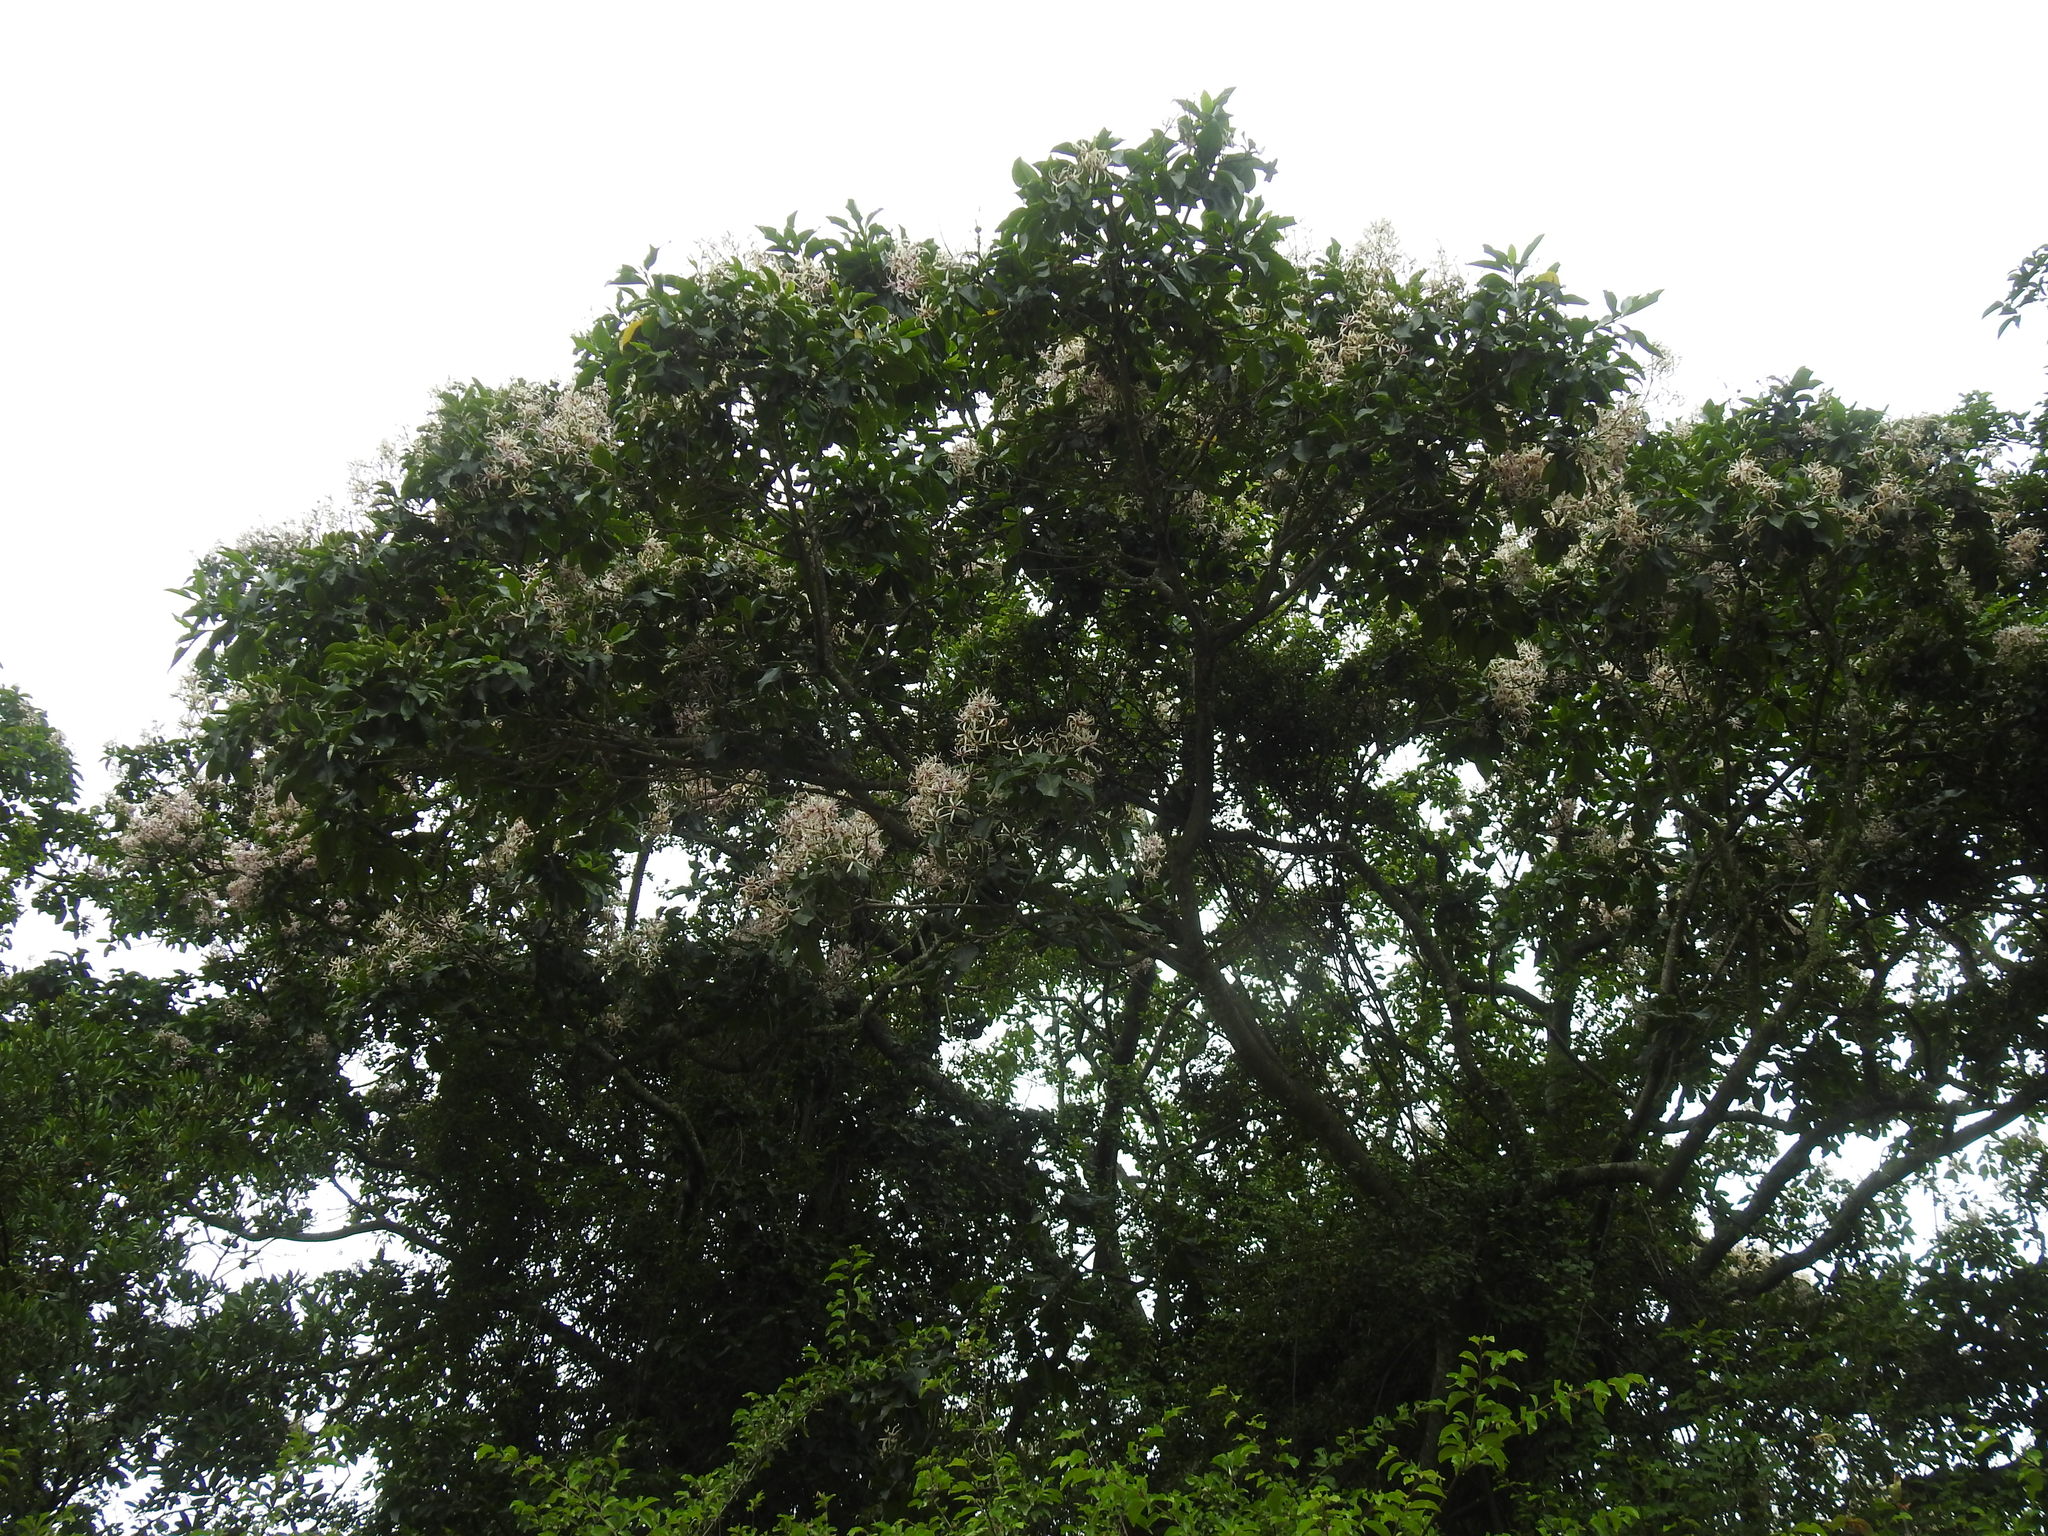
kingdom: Plantae
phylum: Tracheophyta
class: Magnoliopsida
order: Sapindales
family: Rutaceae
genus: Calodendrum
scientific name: Calodendrum capense
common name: Cape chestnut
